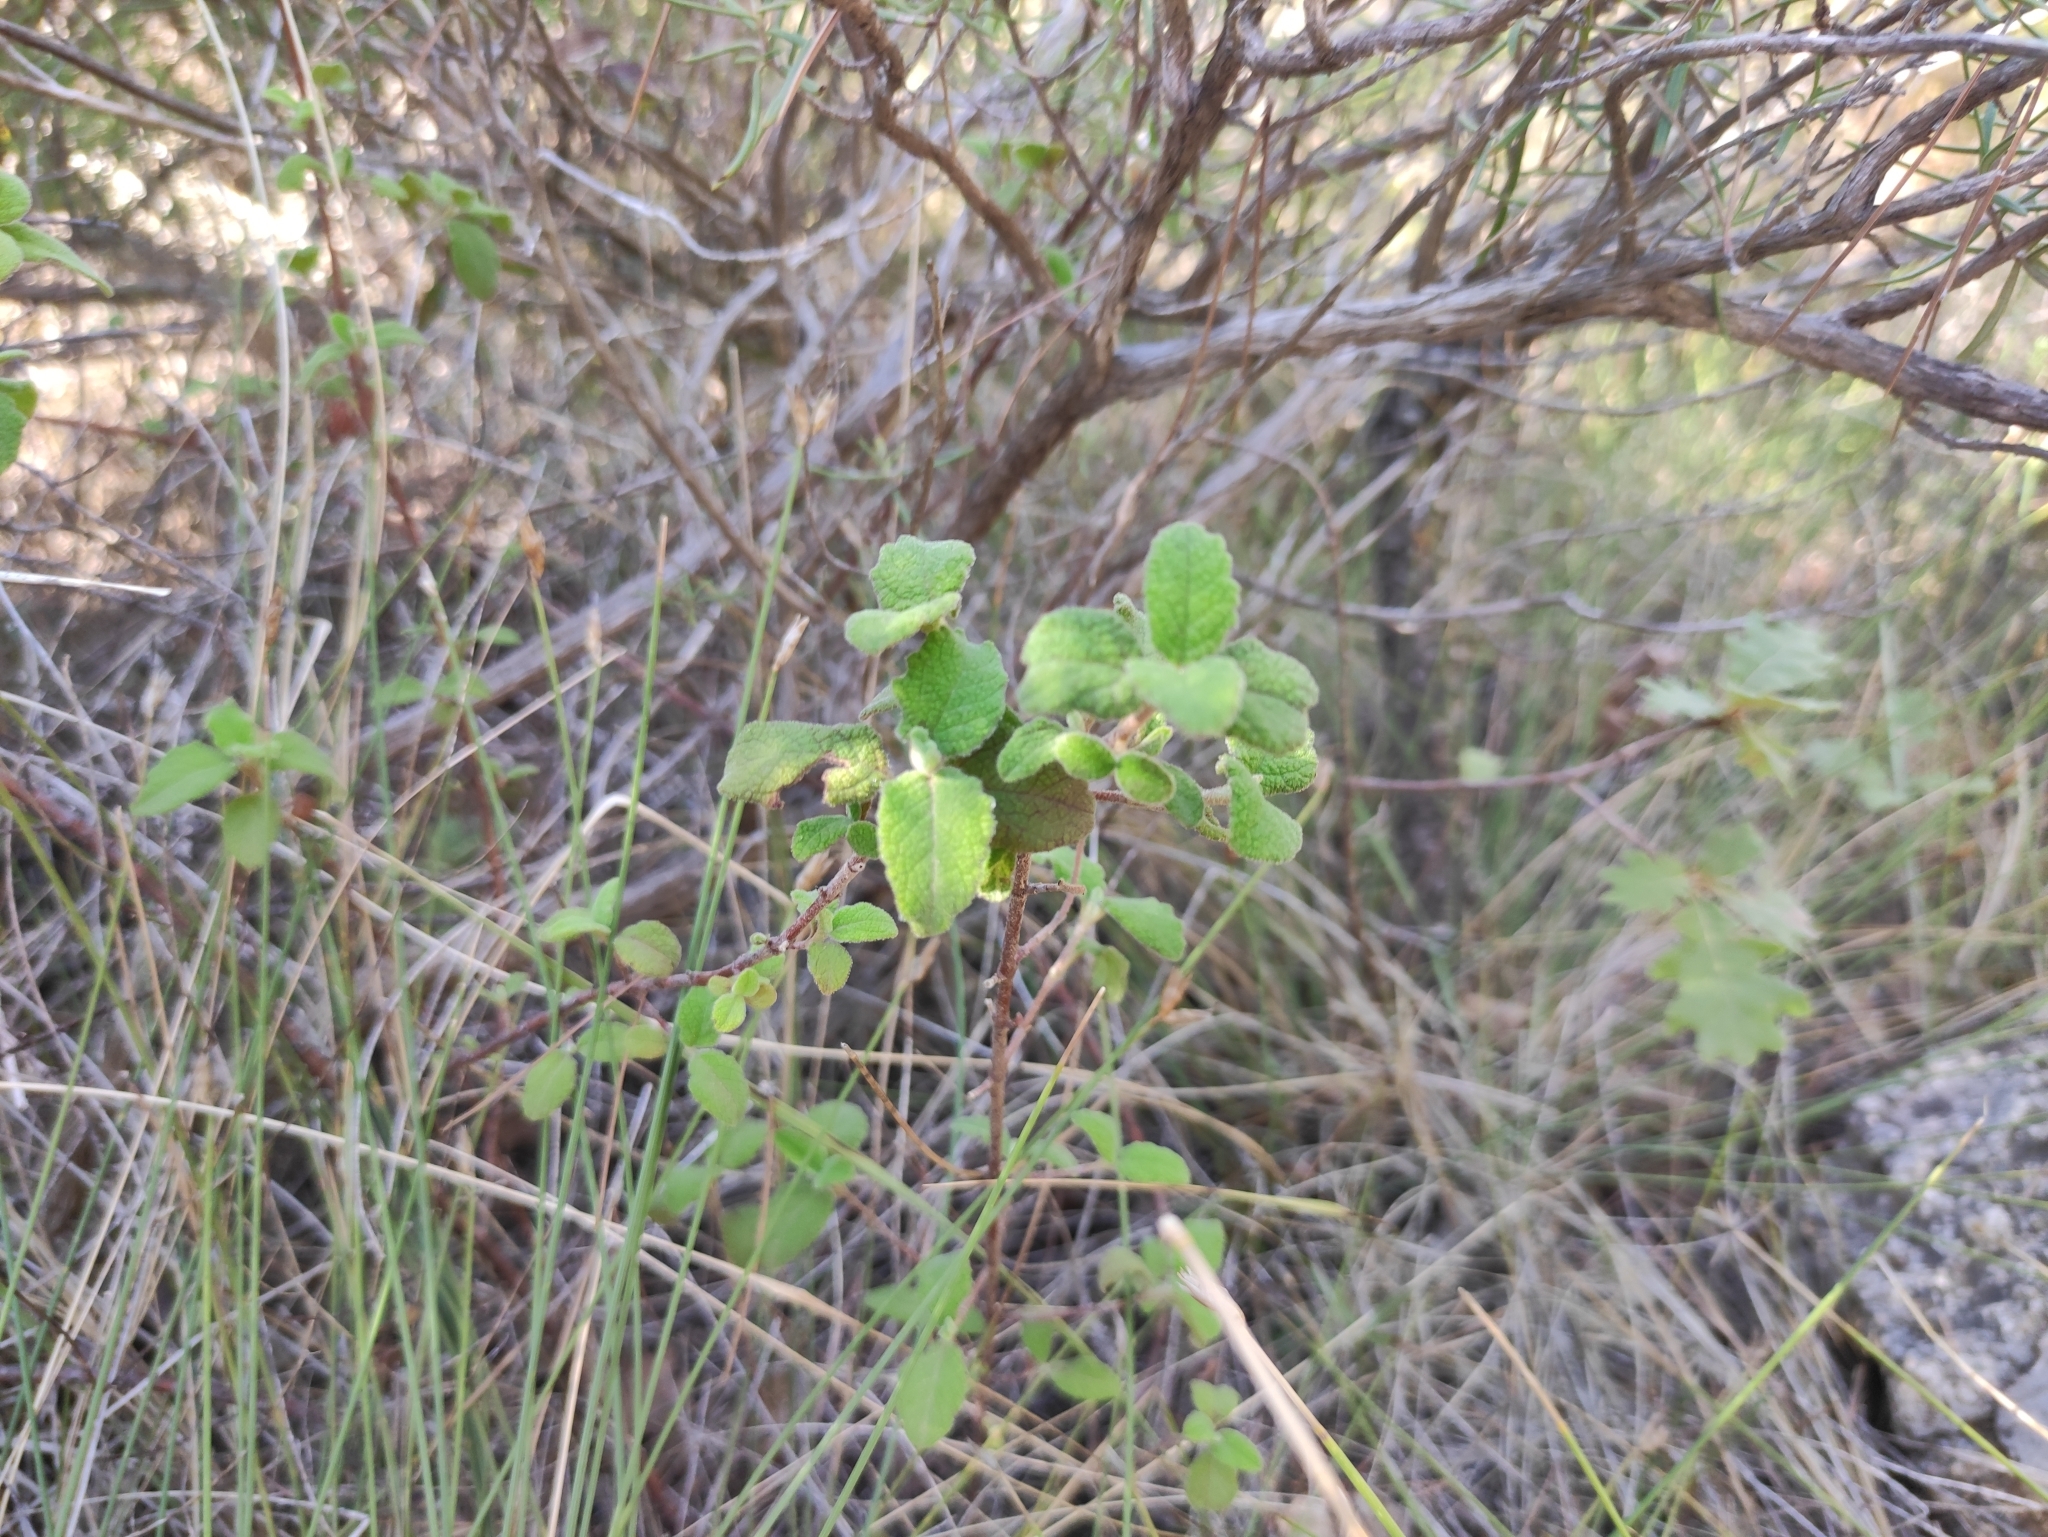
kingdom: Plantae
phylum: Tracheophyta
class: Magnoliopsida
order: Malvales
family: Cistaceae
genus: Cistus
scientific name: Cistus salviifolius
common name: Salvia cistus
